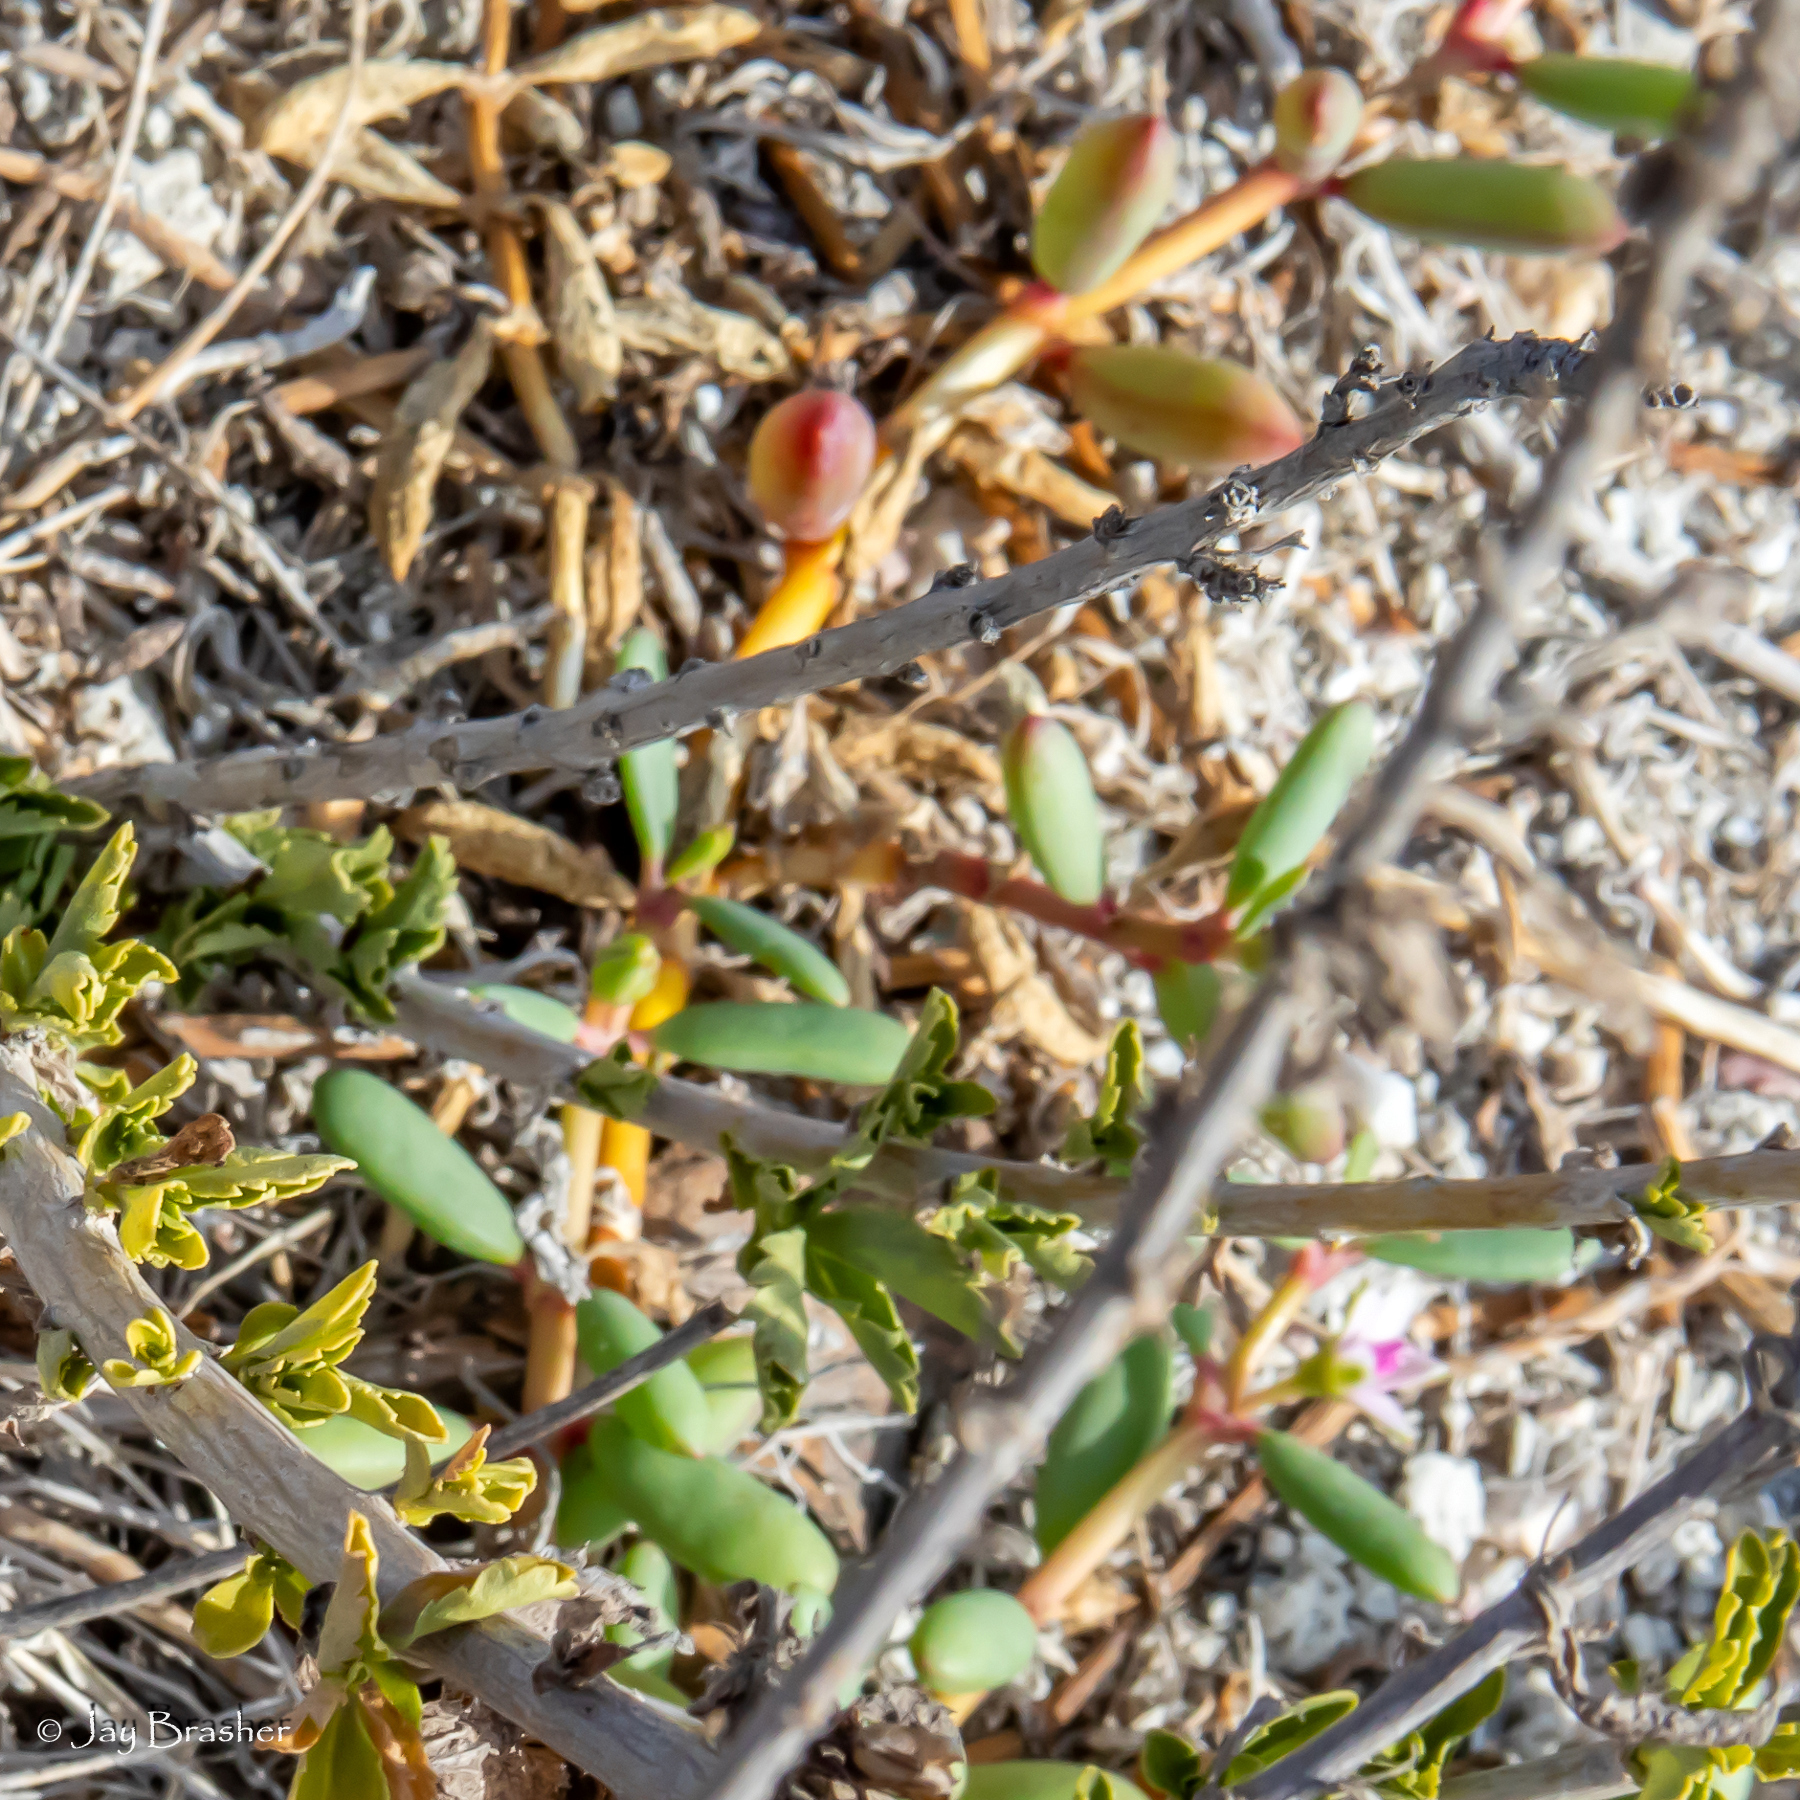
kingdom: Plantae
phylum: Tracheophyta
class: Magnoliopsida
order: Brassicales
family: Bataceae
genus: Batis
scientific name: Batis maritima
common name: Turtleweed
